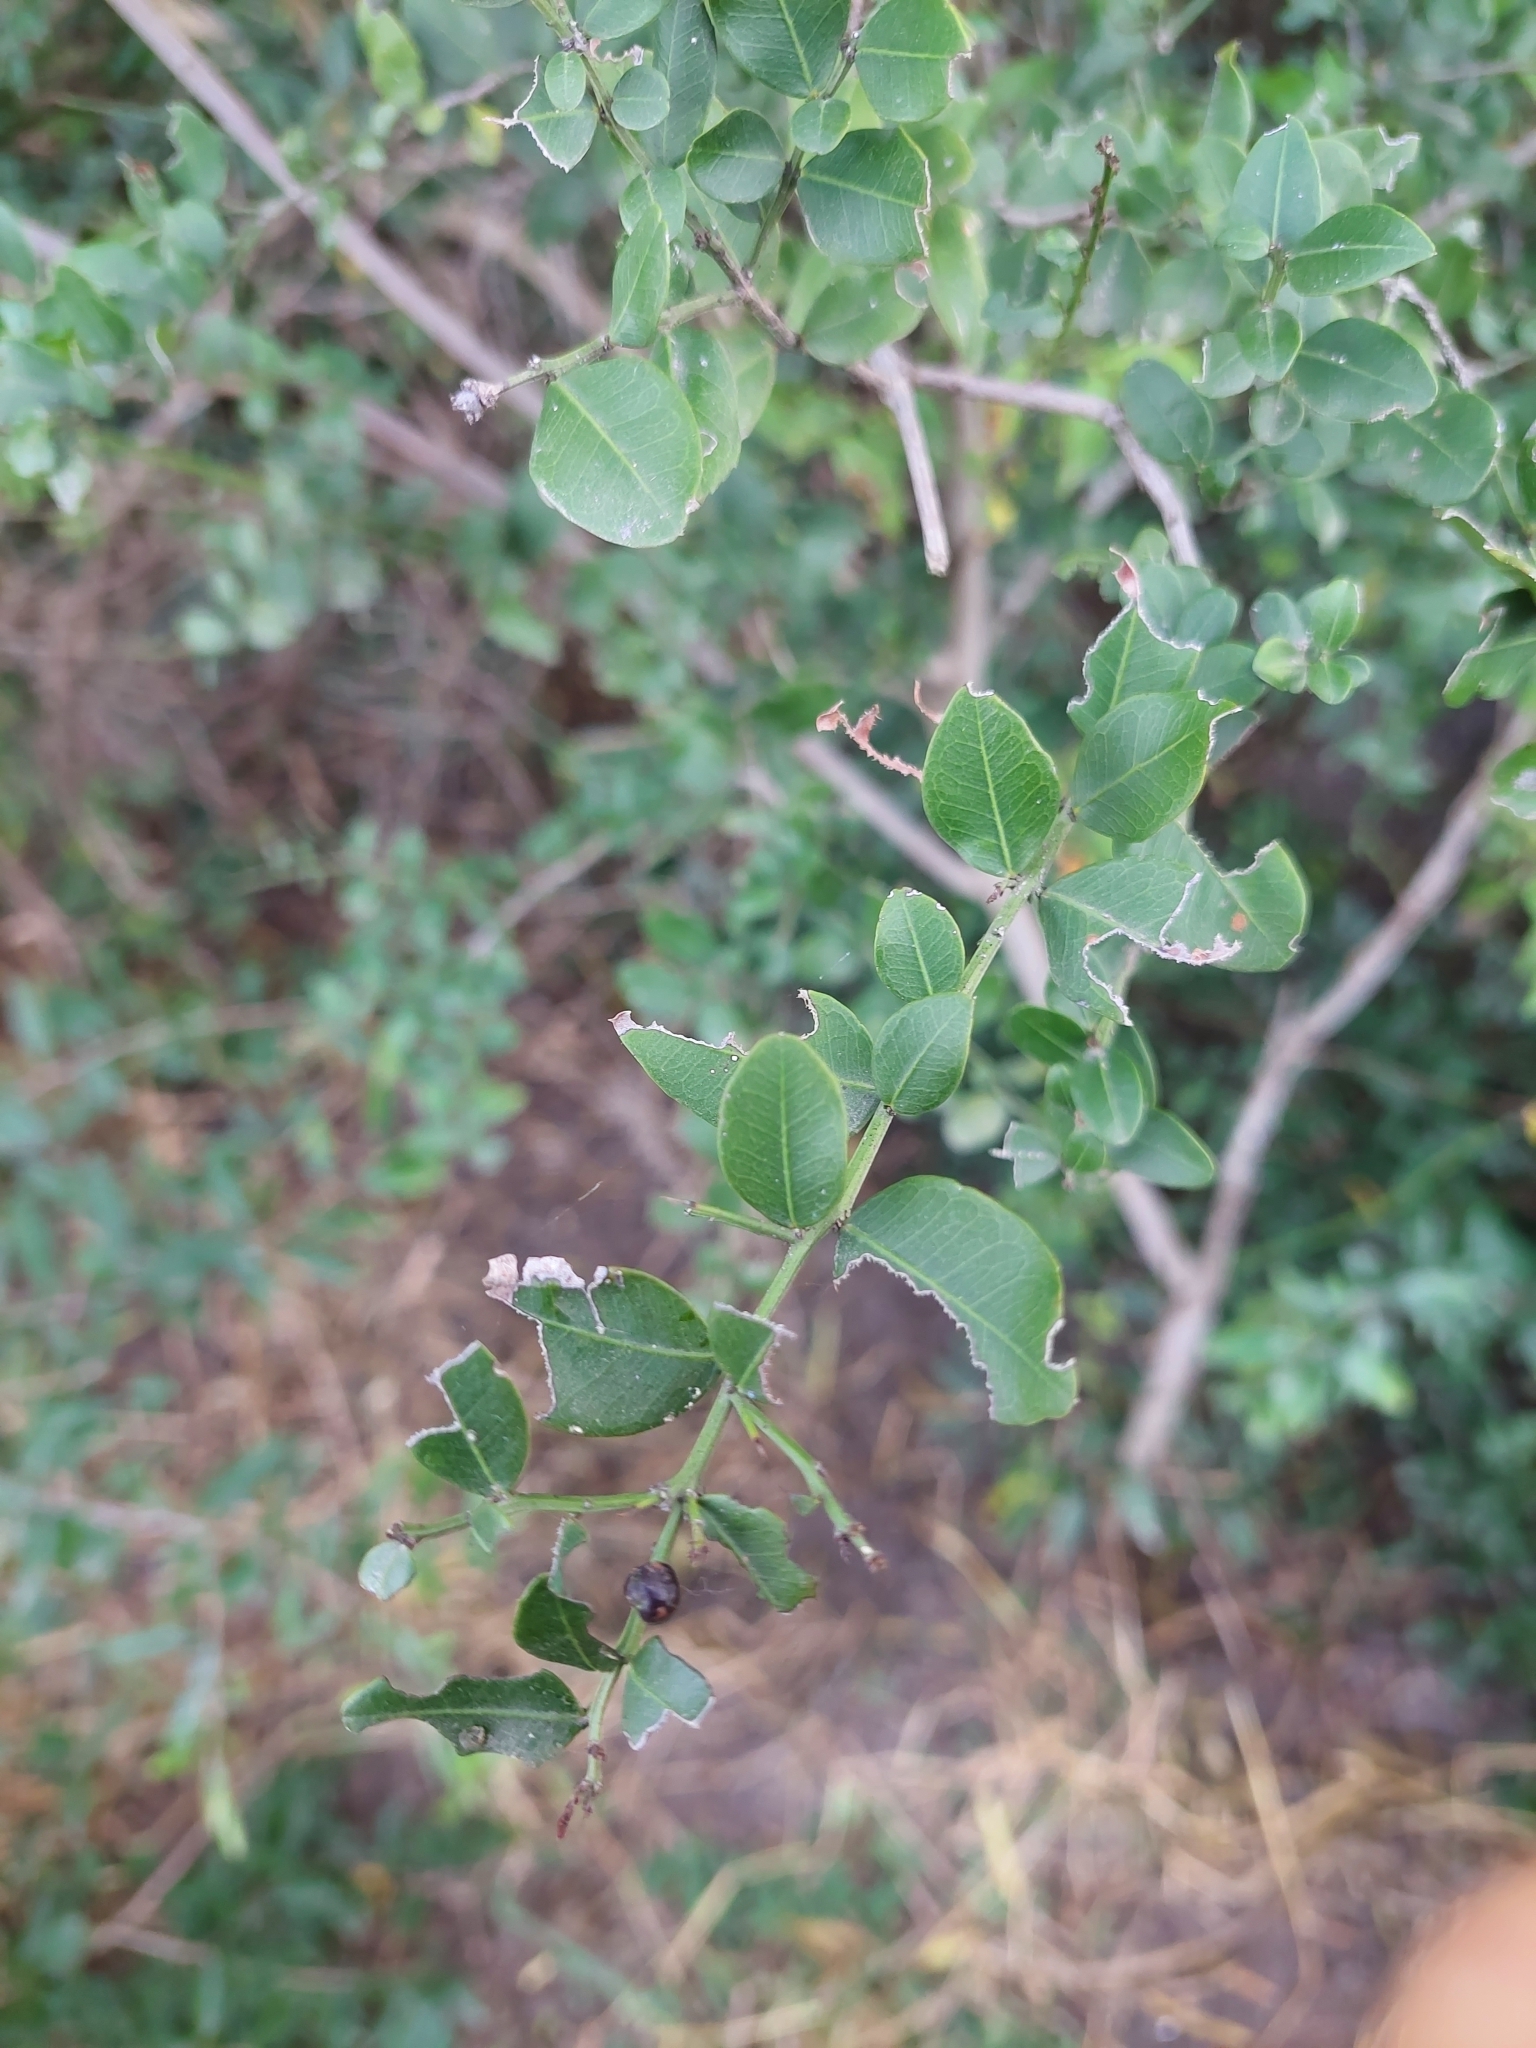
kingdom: Plantae
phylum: Tracheophyta
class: Magnoliopsida
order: Rosales
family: Rhamnaceae
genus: Scutia
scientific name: Scutia buxifolia
